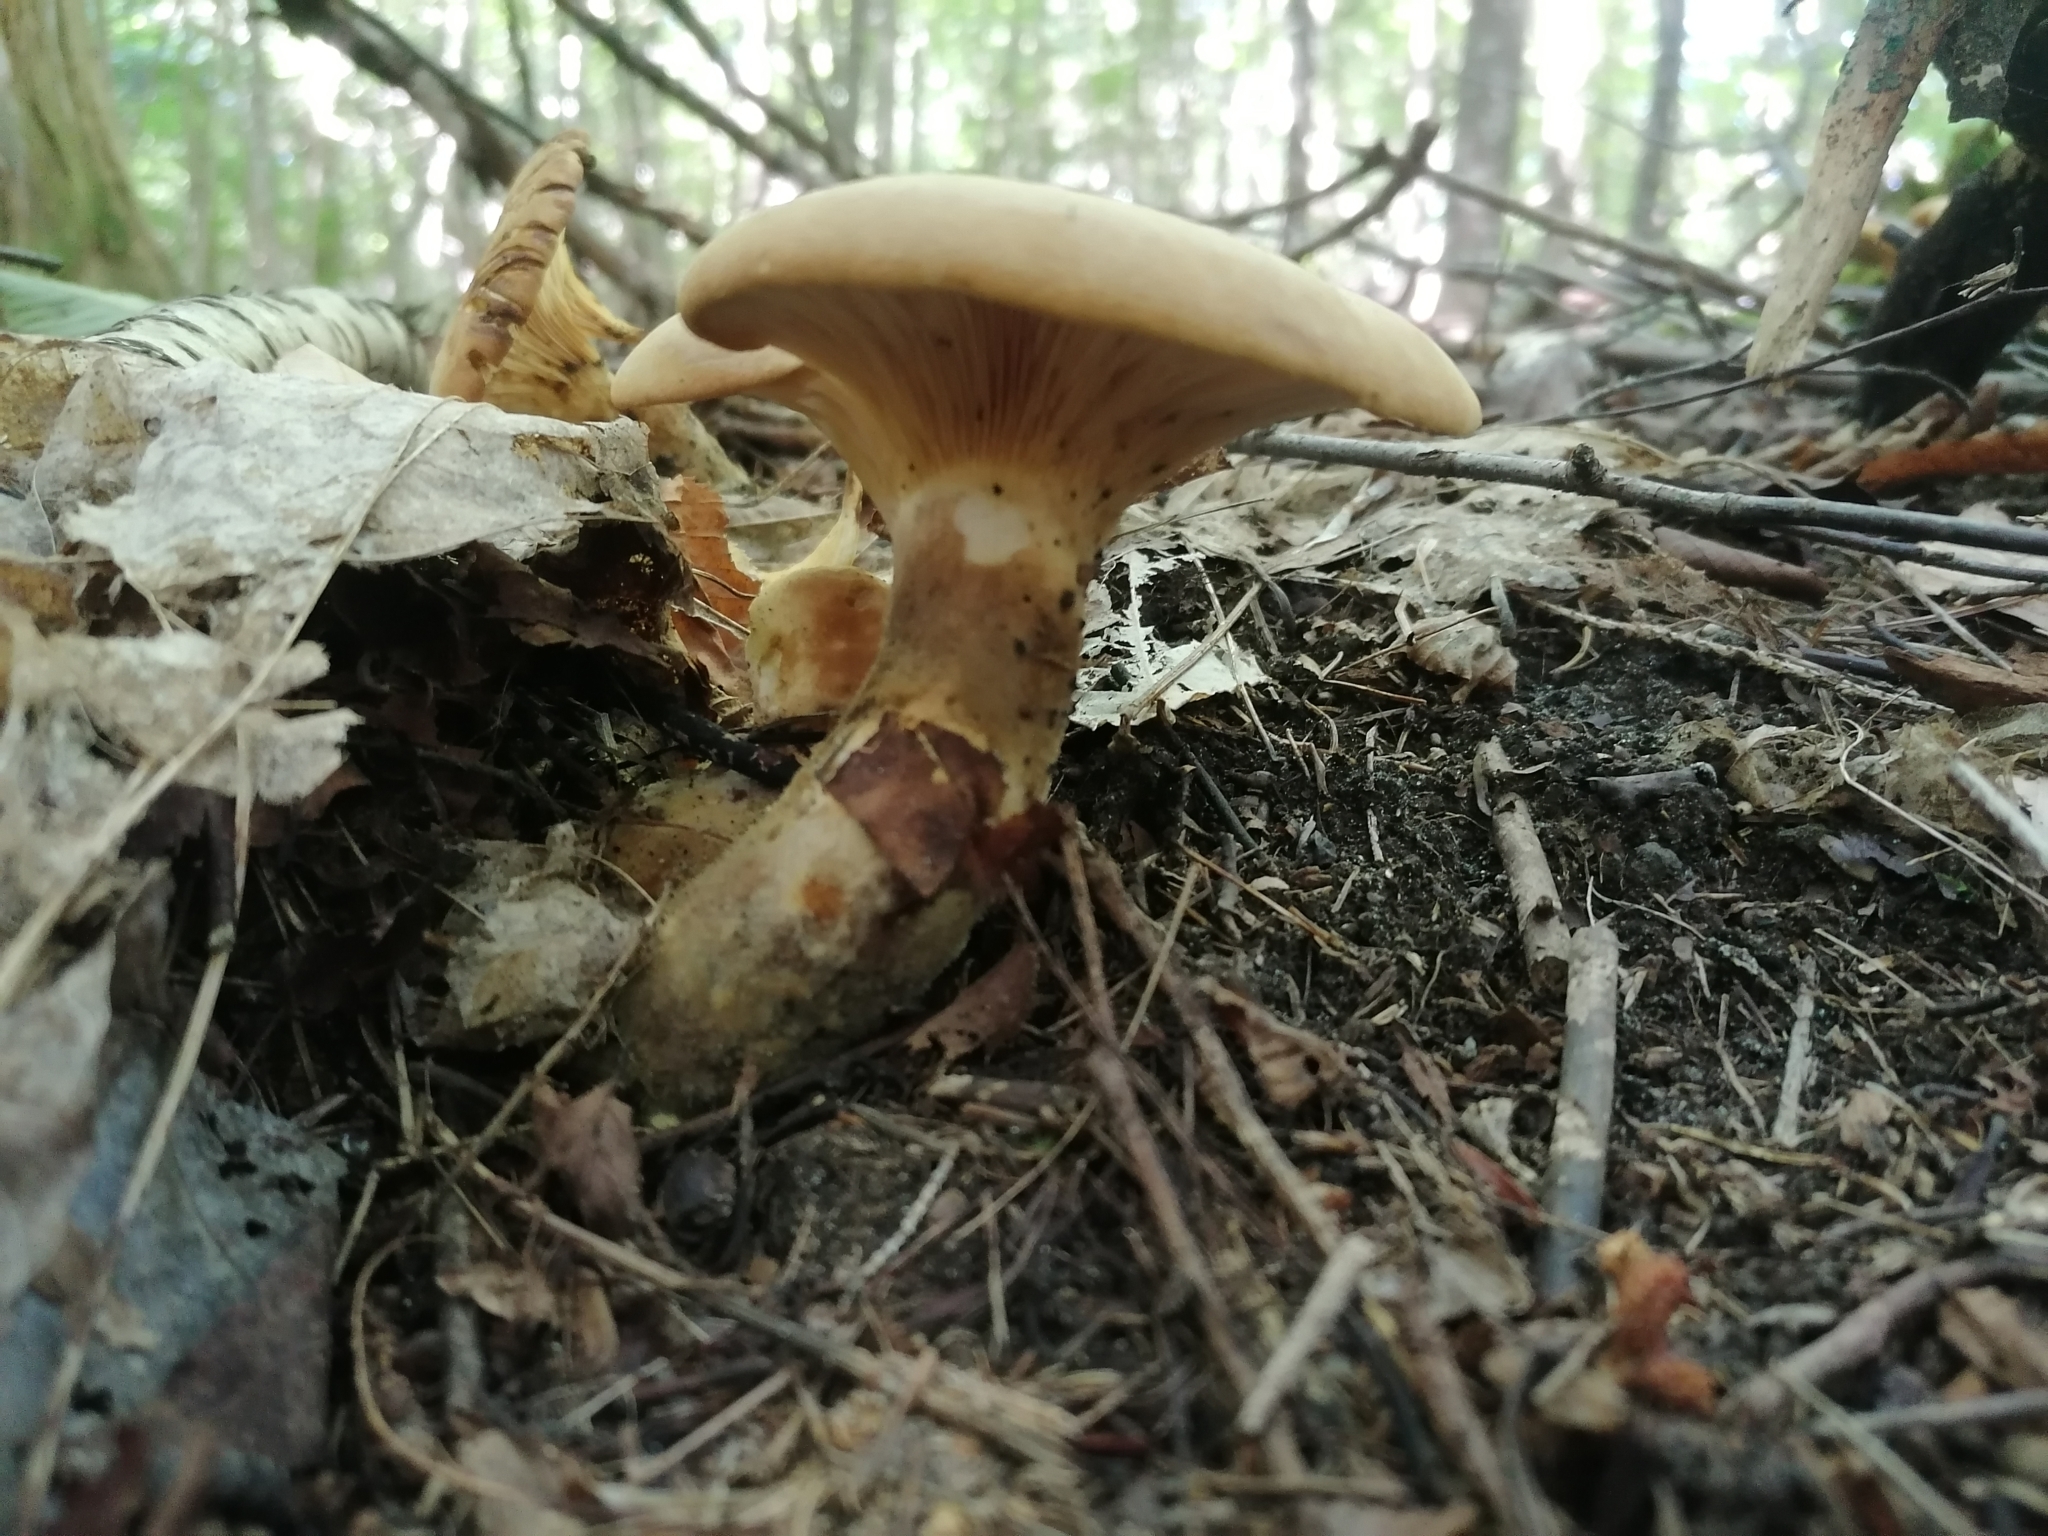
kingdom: Fungi
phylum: Basidiomycota
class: Agaricomycetes
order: Boletales
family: Tapinellaceae
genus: Tapinella
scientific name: Tapinella atrotomentosa
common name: Velvet rollrim
